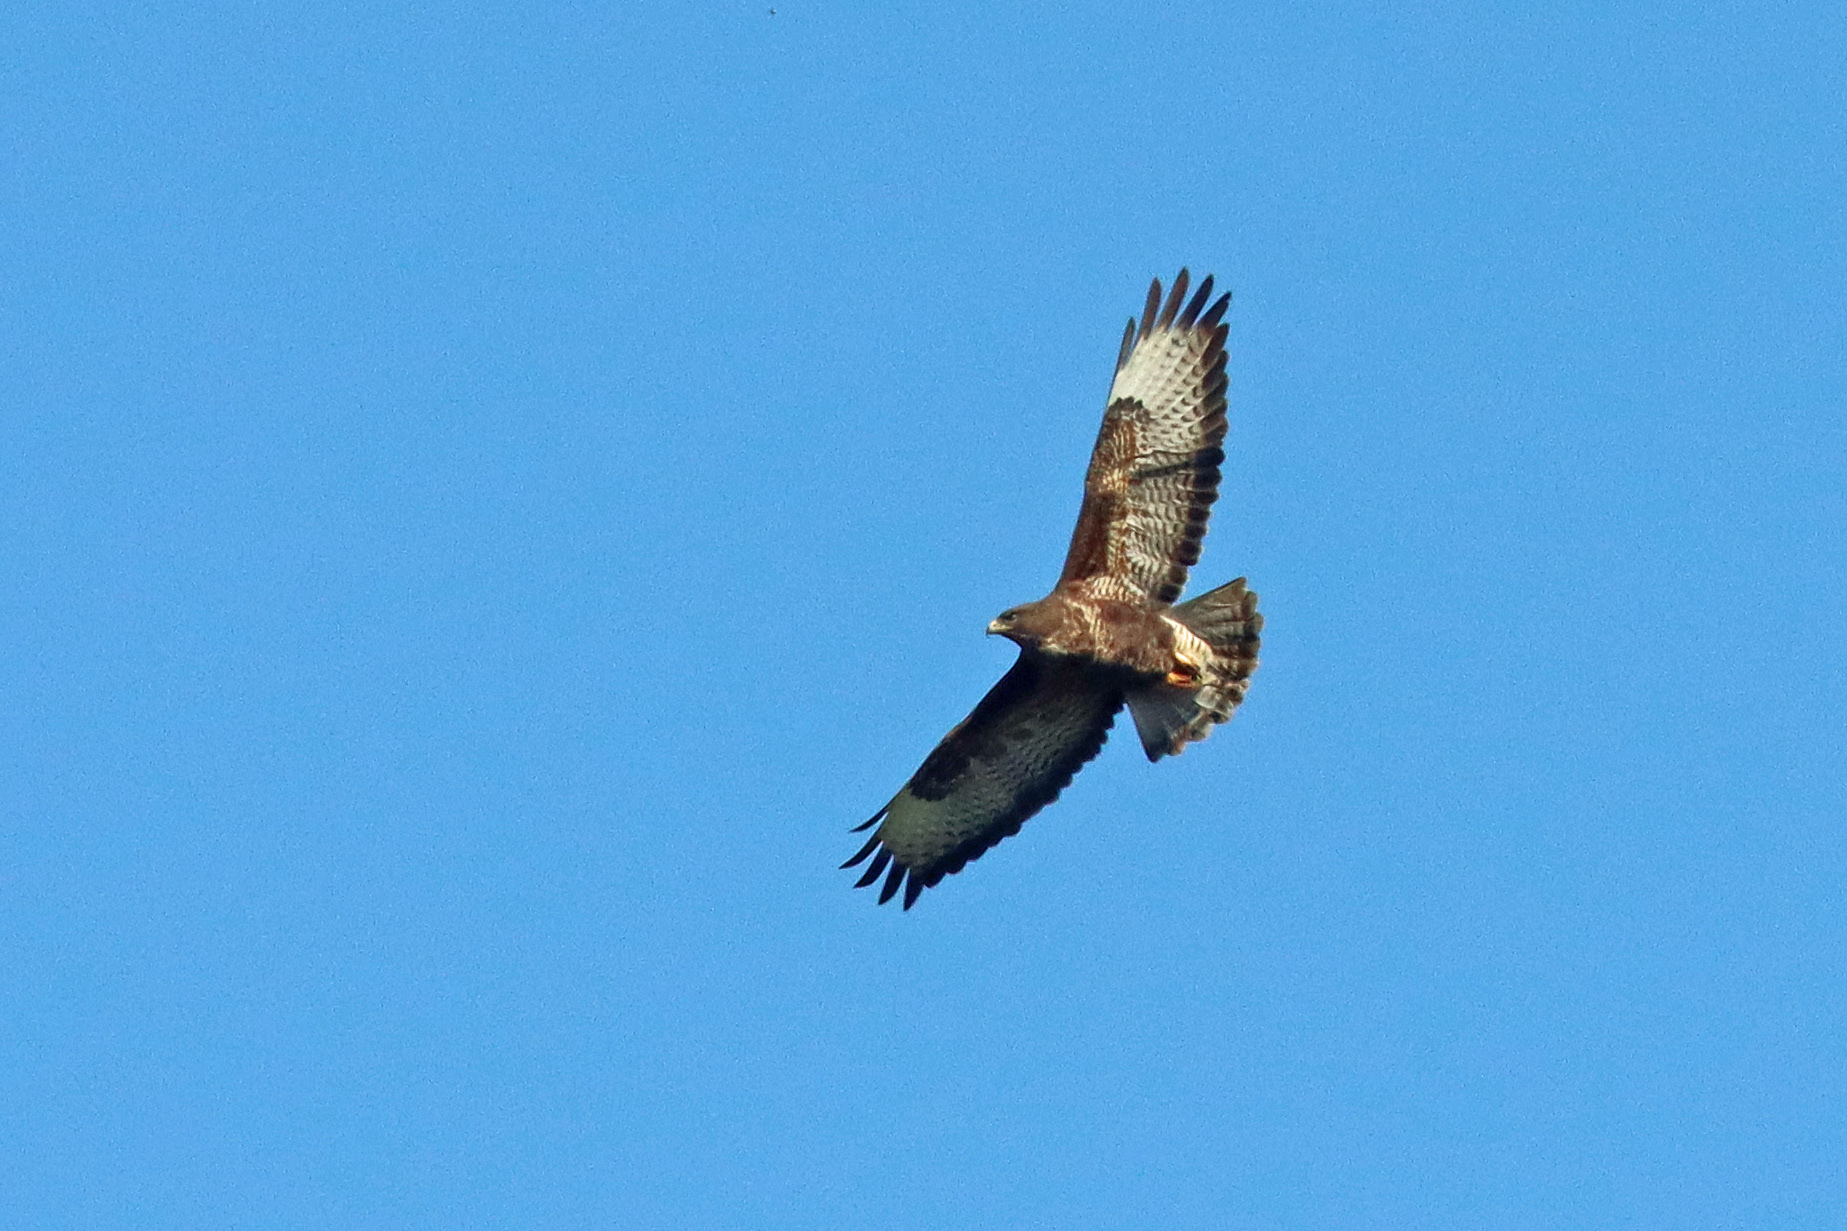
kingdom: Animalia
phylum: Chordata
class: Aves
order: Accipitriformes
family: Accipitridae
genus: Buteo
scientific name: Buteo buteo
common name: Common buzzard
